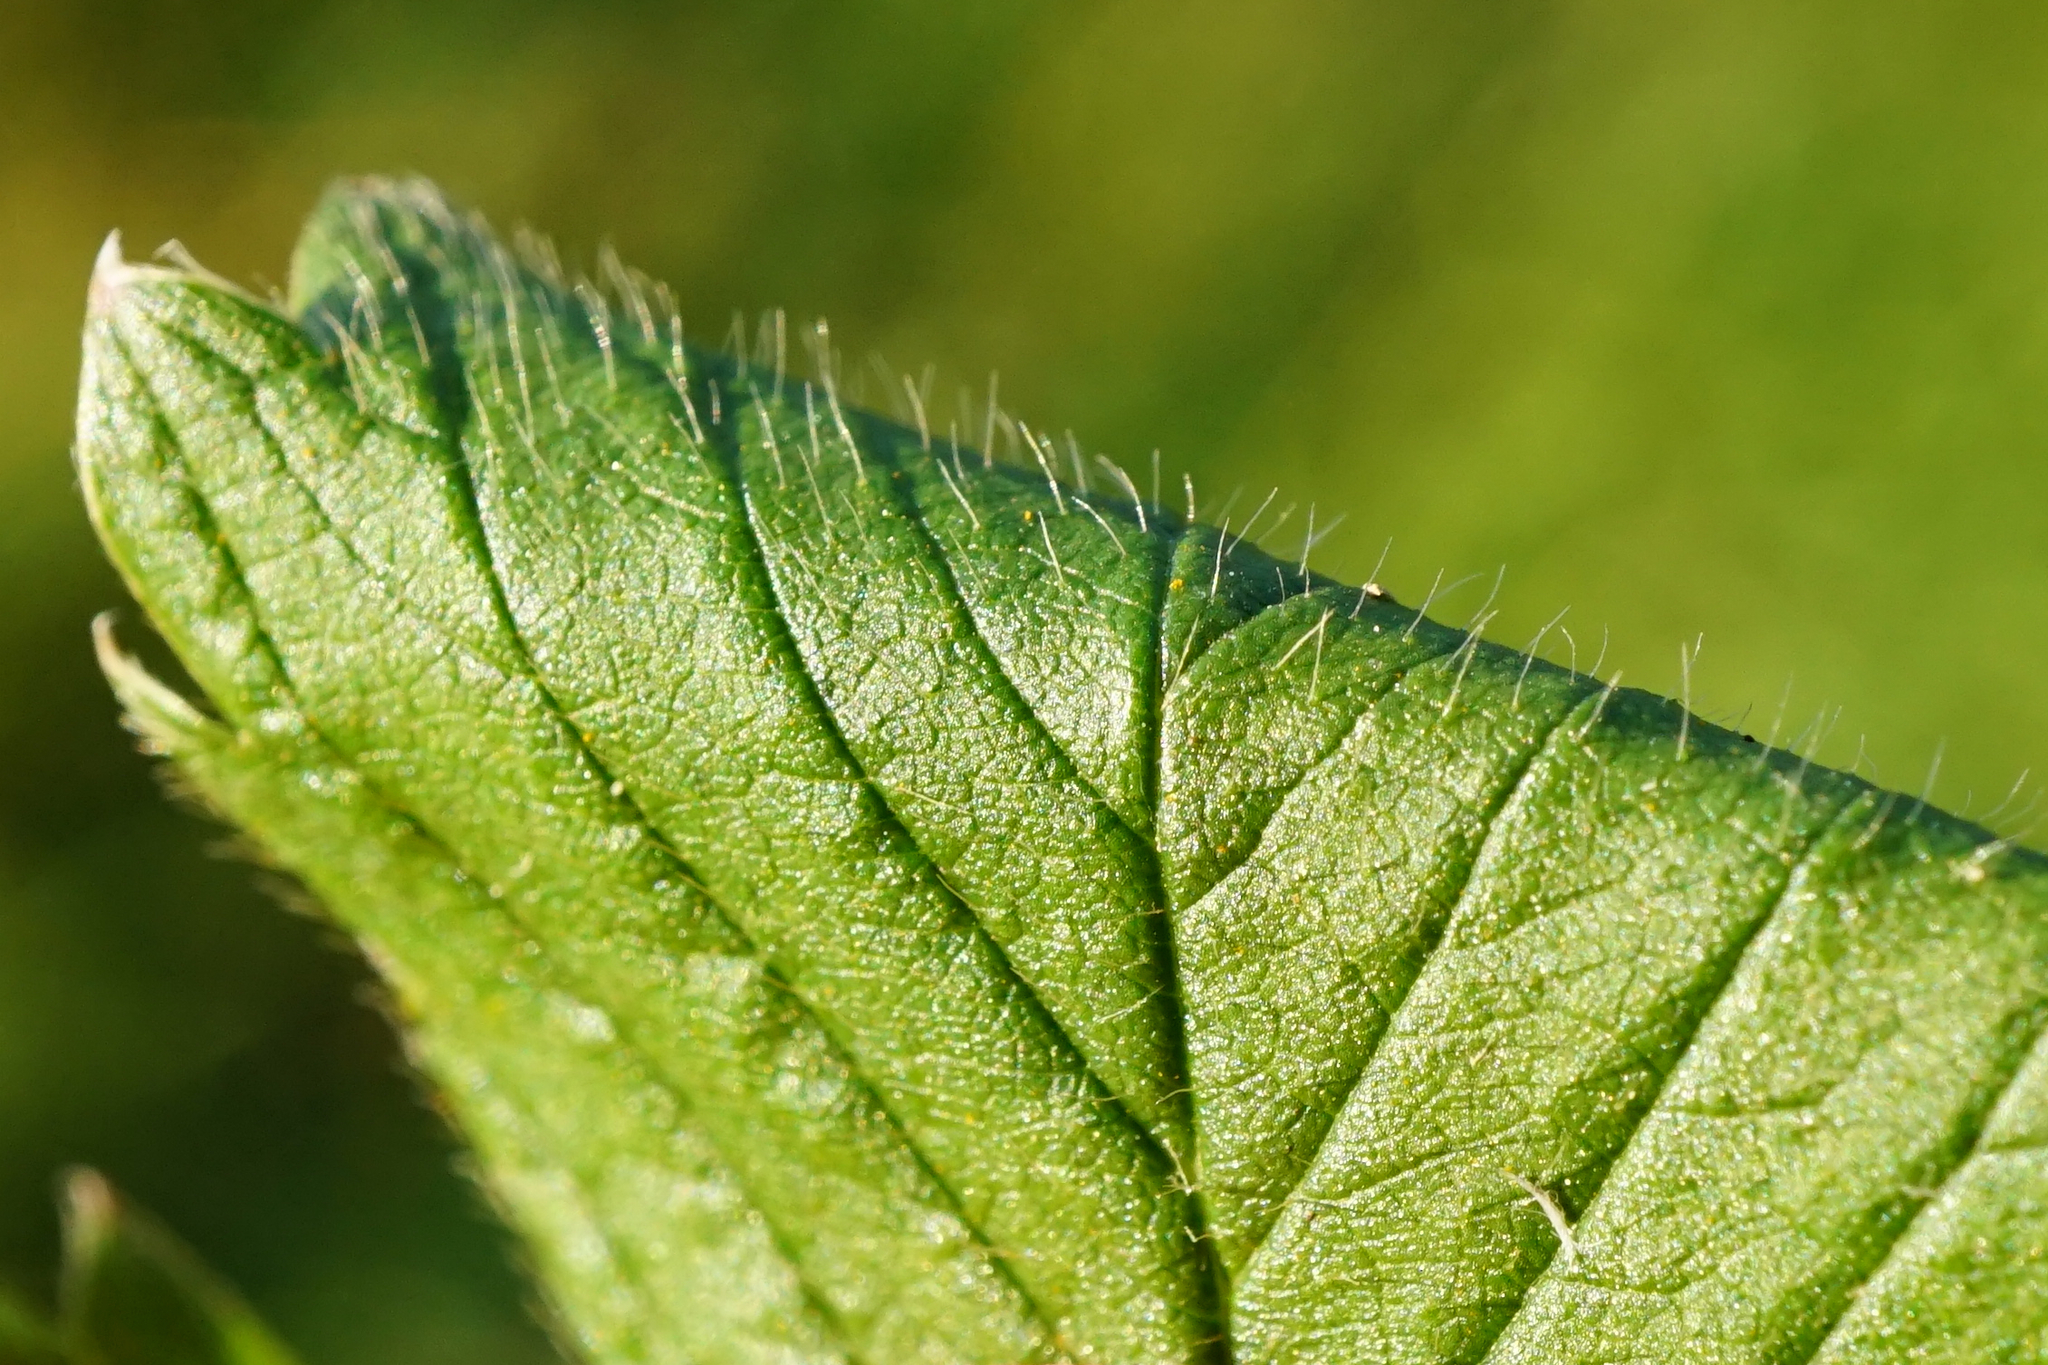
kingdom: Plantae
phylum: Tracheophyta
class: Magnoliopsida
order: Rosales
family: Rosaceae
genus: Fragaria
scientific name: Fragaria moschata
